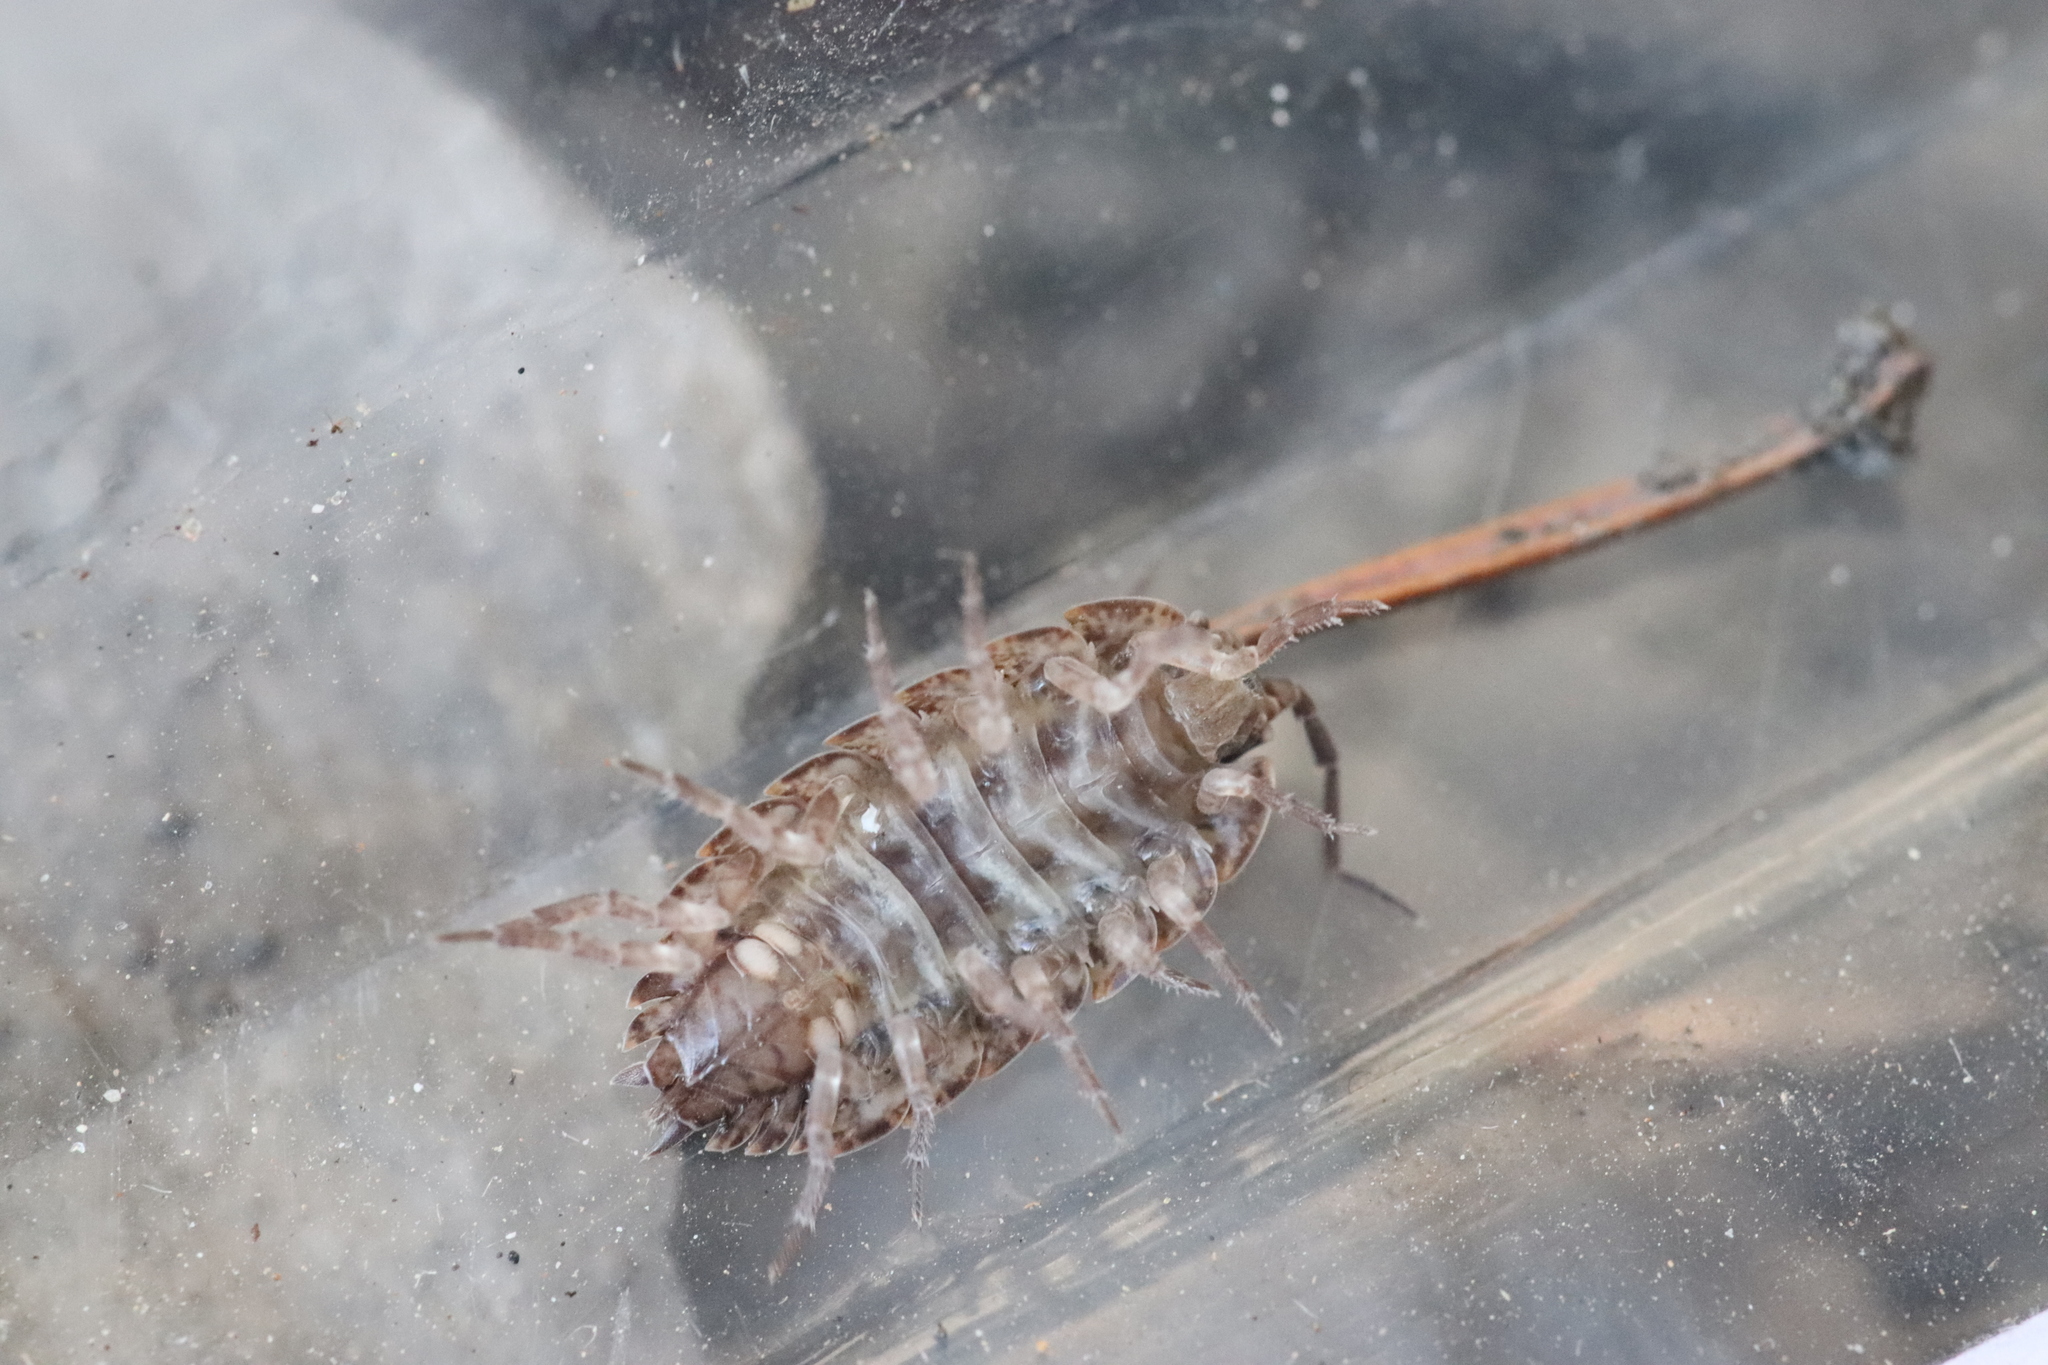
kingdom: Animalia
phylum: Arthropoda
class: Malacostraca
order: Isopoda
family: Porcellionidae
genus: Porcellio
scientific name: Porcellio montanus
